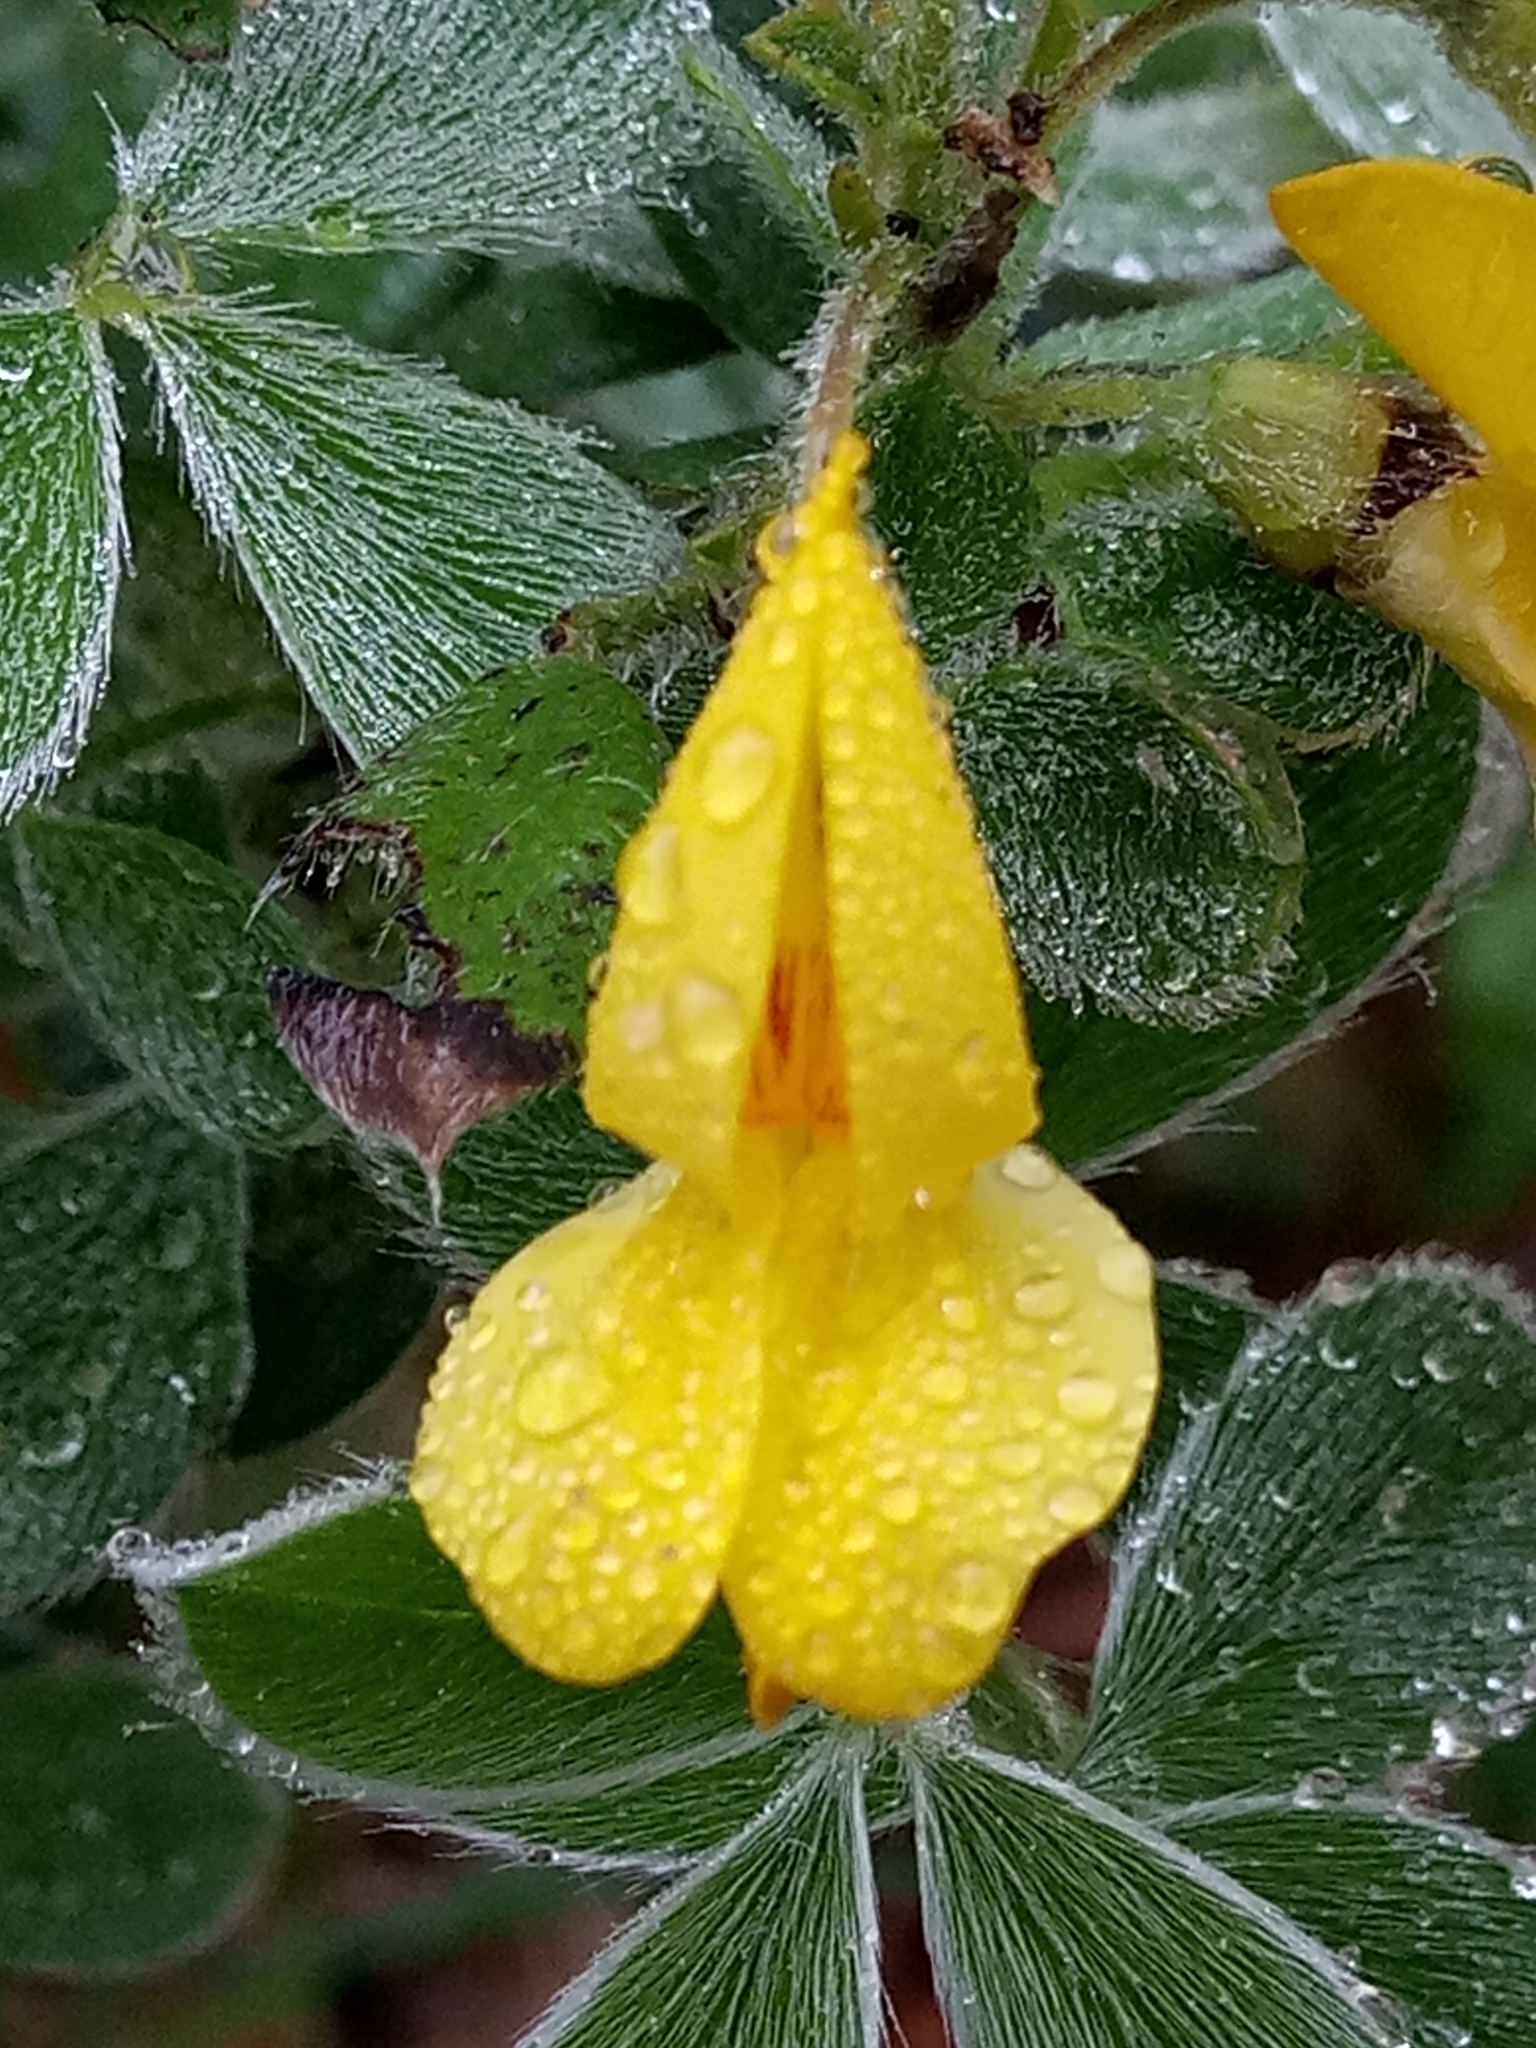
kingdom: Plantae
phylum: Tracheophyta
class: Magnoliopsida
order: Fabales
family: Fabaceae
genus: Cytisus
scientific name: Cytisus villosus
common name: Hairybroom
